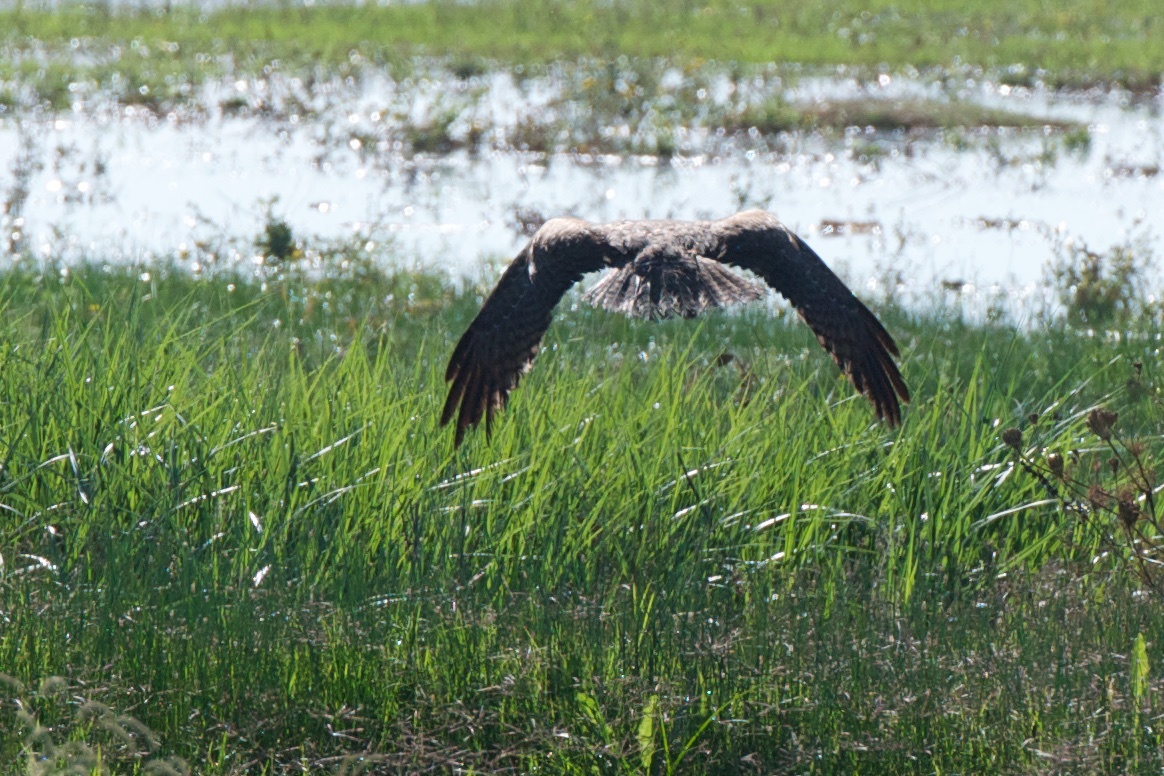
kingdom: Animalia
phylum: Chordata
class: Aves
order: Accipitriformes
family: Accipitridae
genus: Buteo
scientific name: Buteo jamaicensis
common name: Red-tailed hawk
